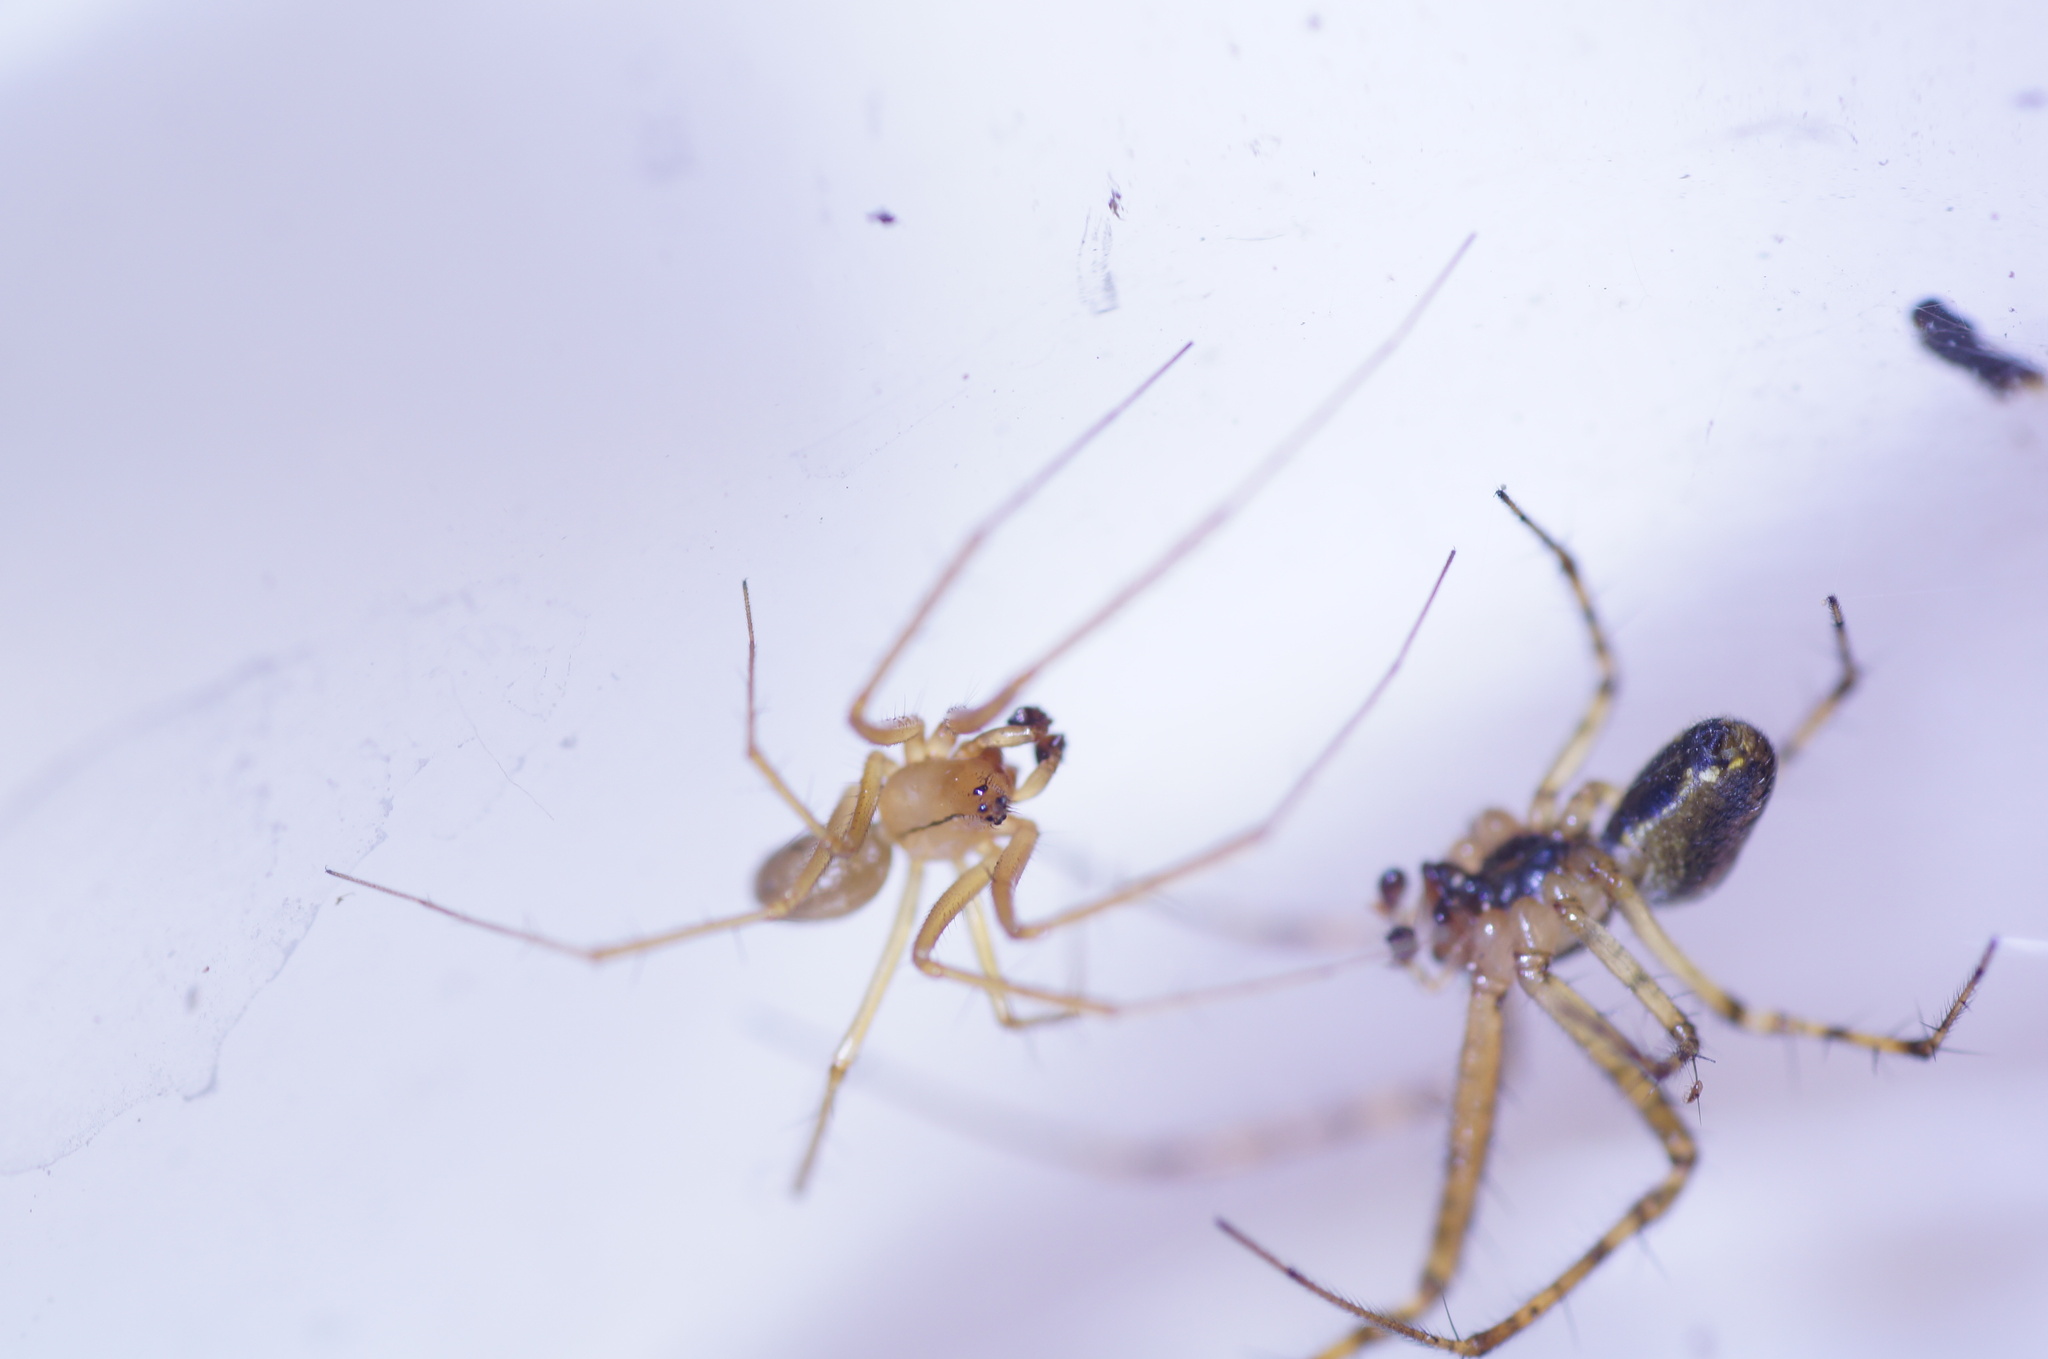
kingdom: Animalia
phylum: Arthropoda
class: Arachnida
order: Araneae
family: Linyphiidae
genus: Bolyphantes
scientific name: Bolyphantes alticeps
